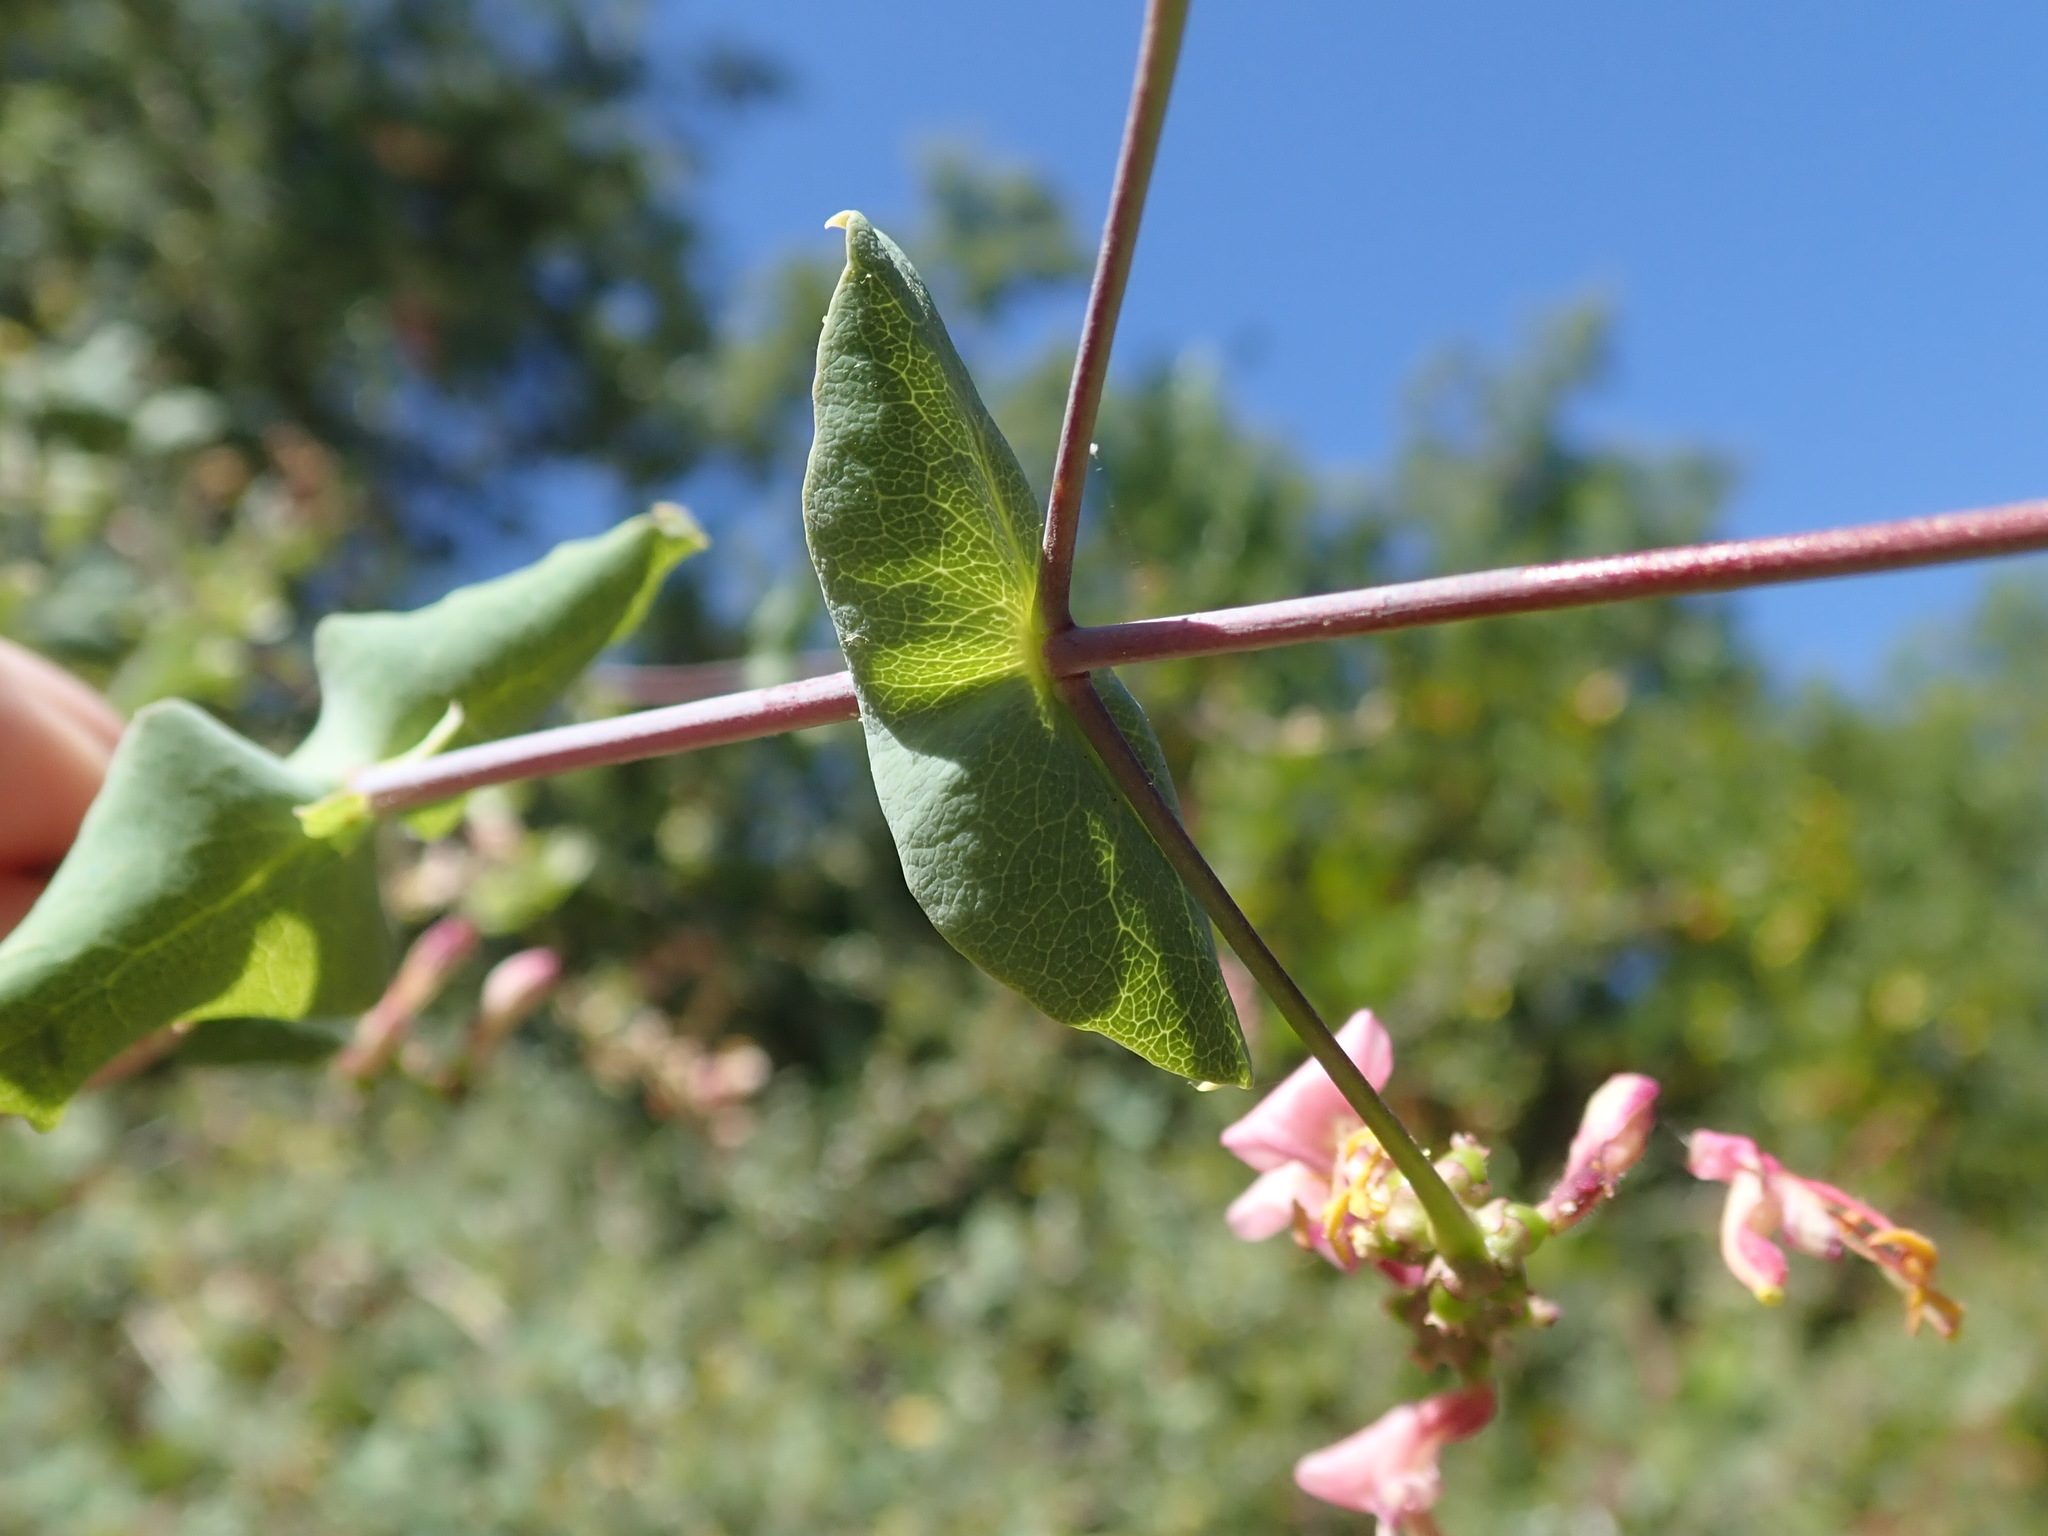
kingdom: Plantae
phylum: Tracheophyta
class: Magnoliopsida
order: Dipsacales
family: Caprifoliaceae
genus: Lonicera
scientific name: Lonicera hispidula
